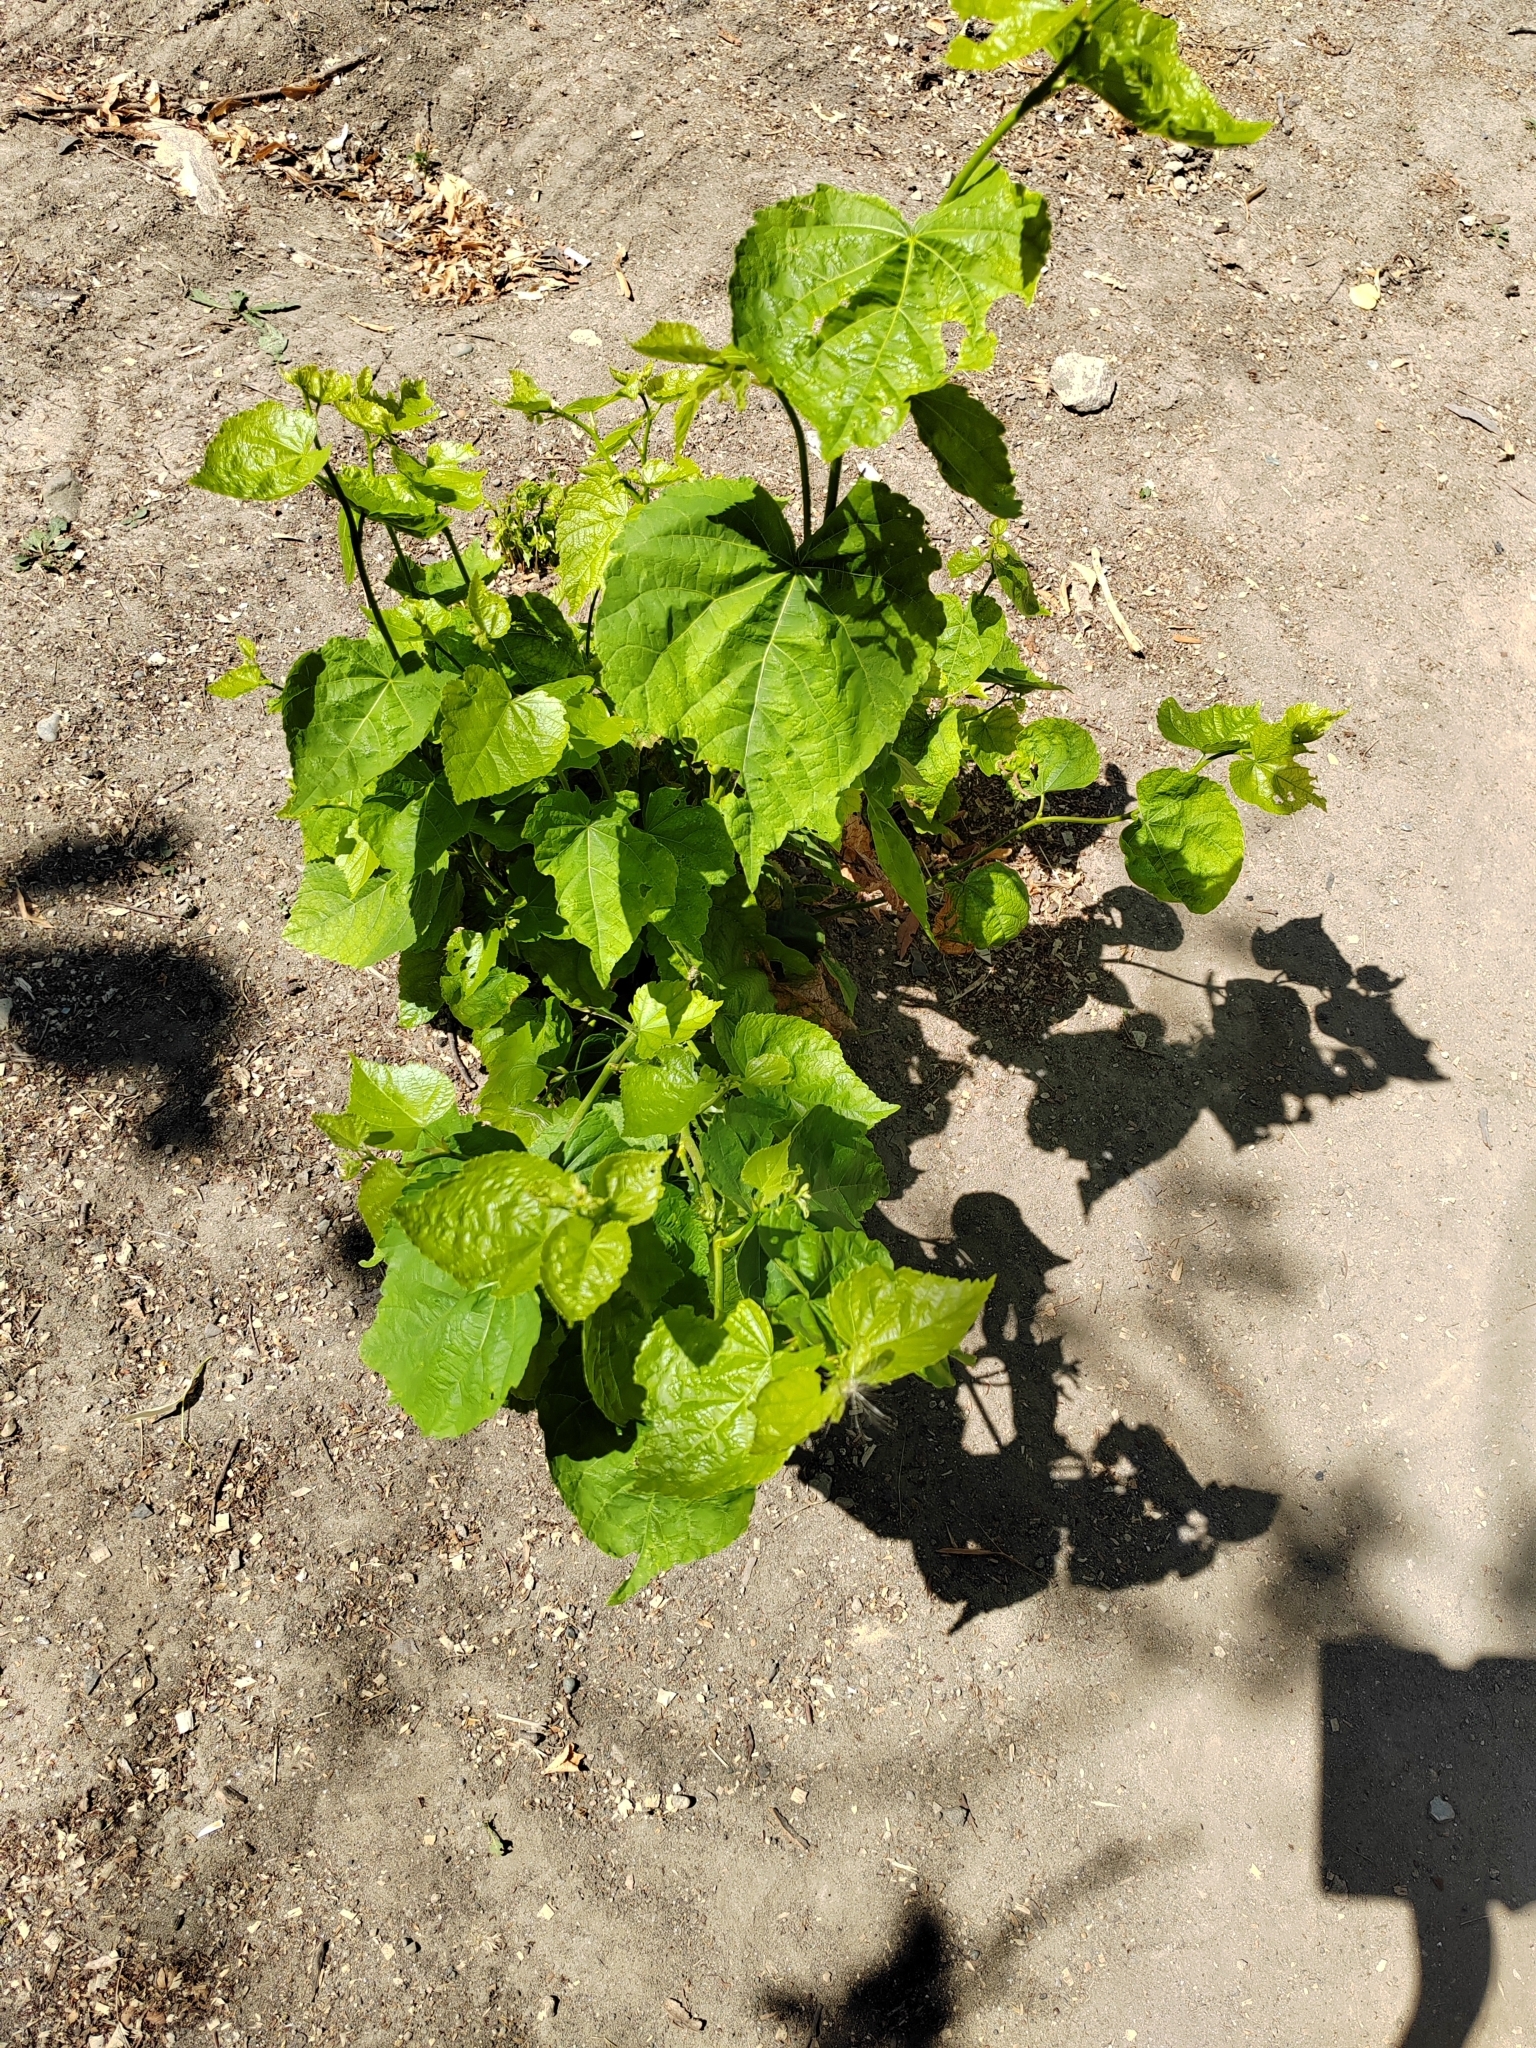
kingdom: Plantae
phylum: Tracheophyta
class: Magnoliopsida
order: Malvales
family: Malvaceae
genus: Tilia
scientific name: Tilia cordata
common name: Small-leaved lime
